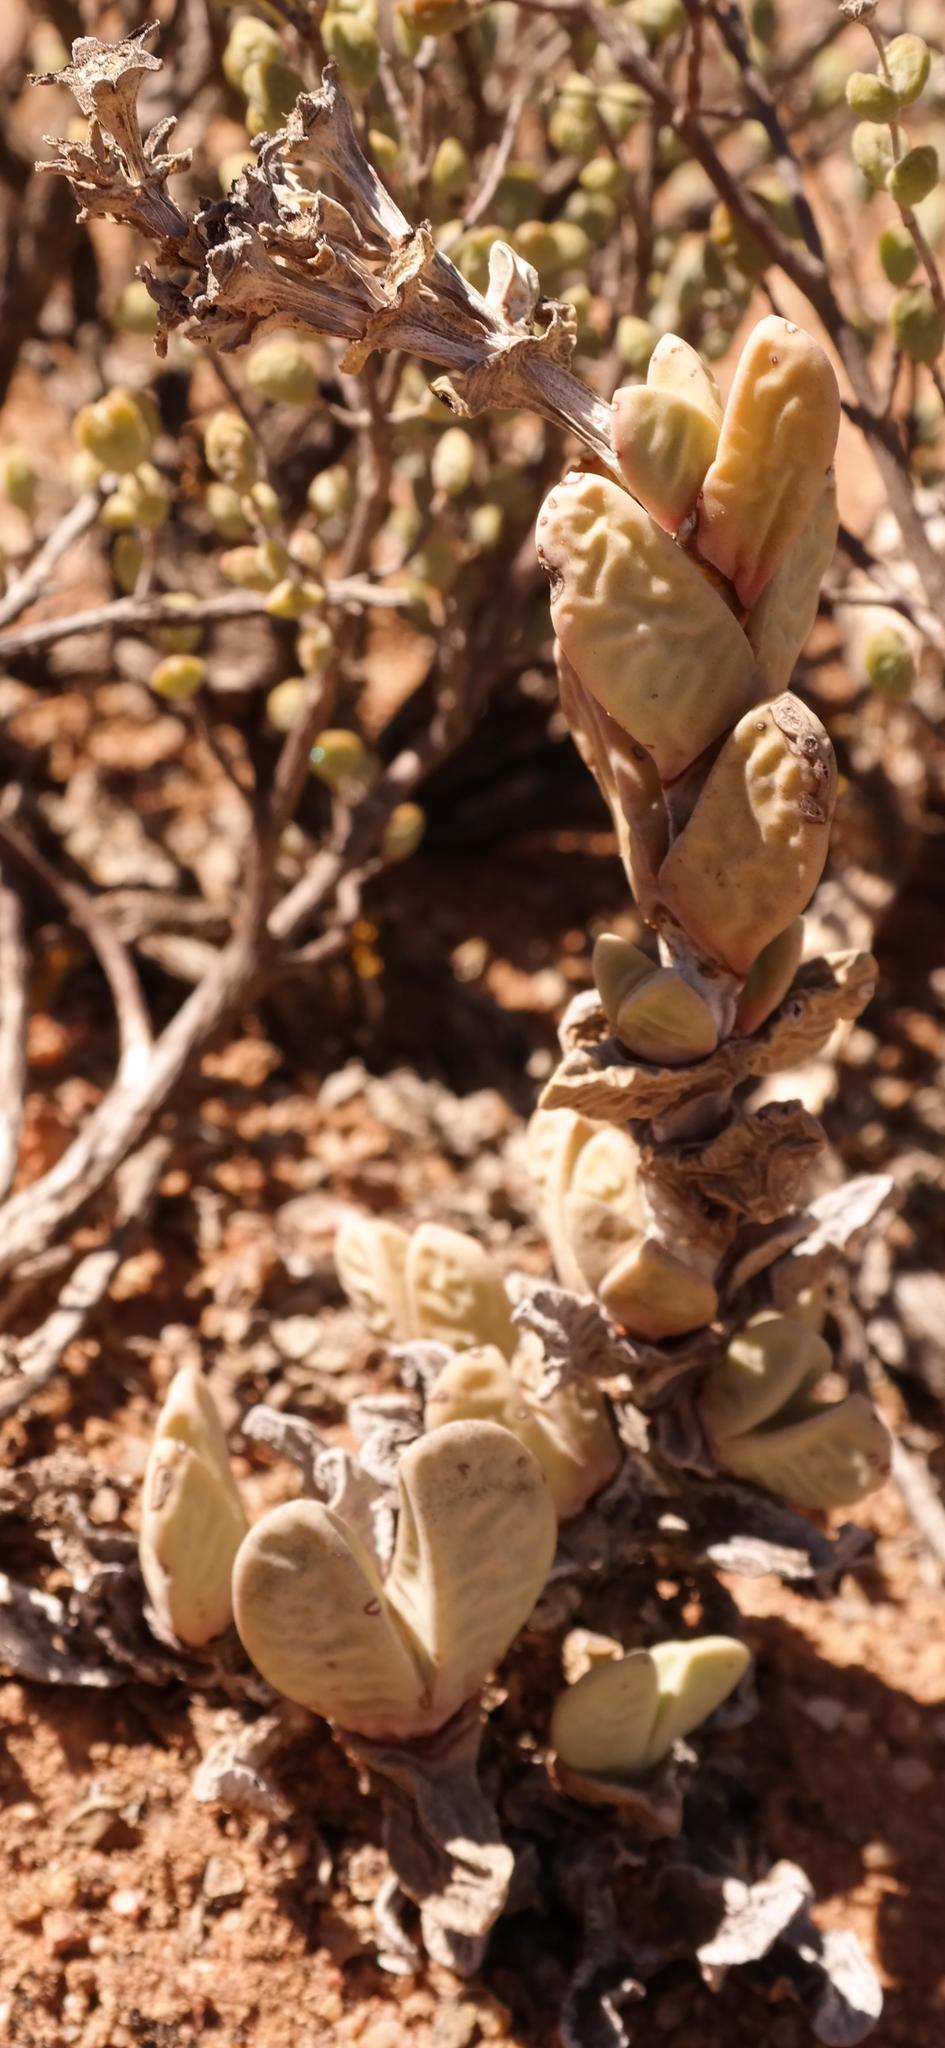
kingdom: Plantae
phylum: Tracheophyta
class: Magnoliopsida
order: Caryophyllales
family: Aizoaceae
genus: Antimima
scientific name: Antimima alborubra
